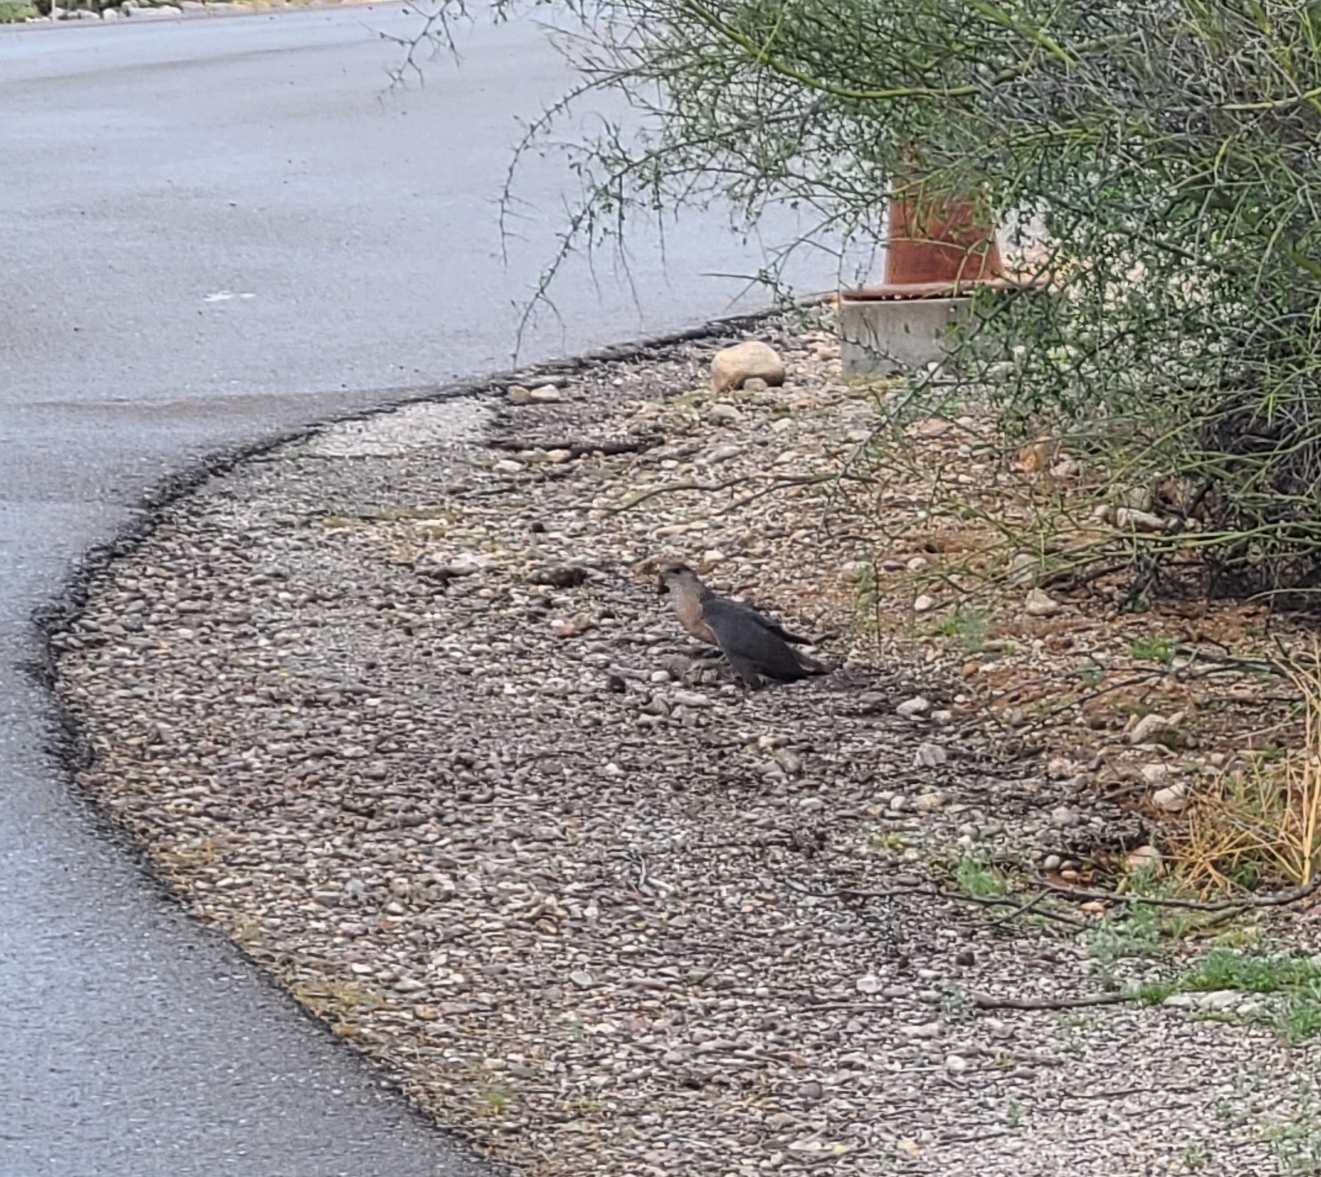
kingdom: Animalia
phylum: Chordata
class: Aves
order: Accipitriformes
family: Accipitridae
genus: Accipiter
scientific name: Accipiter cooperii
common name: Cooper's hawk
